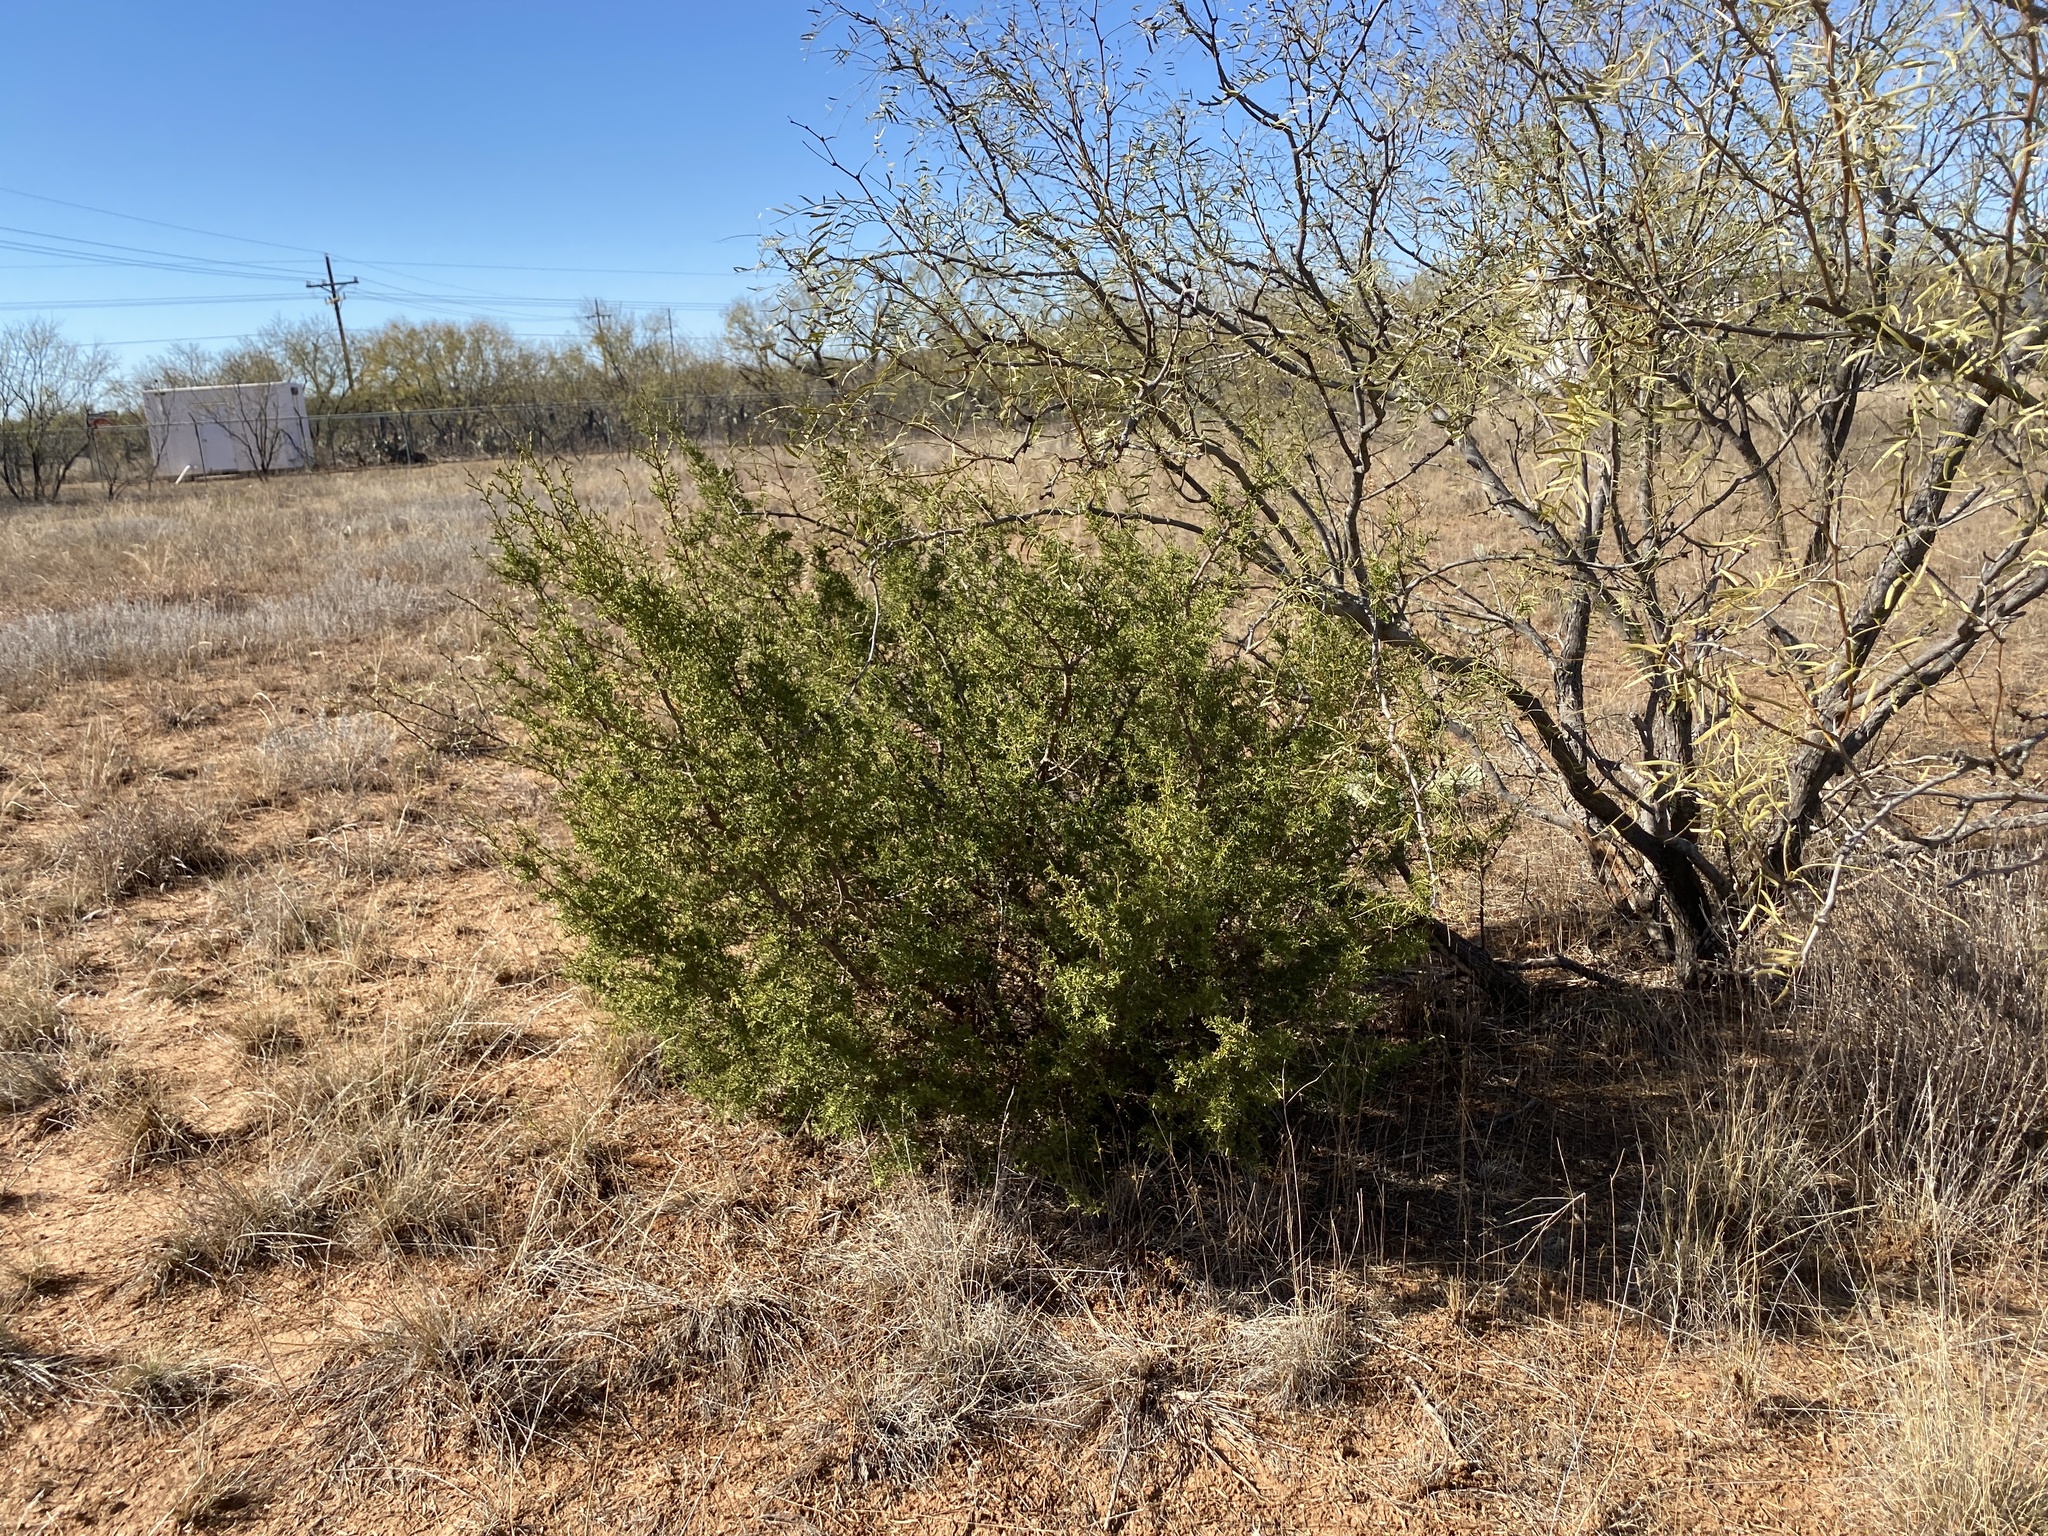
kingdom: Plantae
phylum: Tracheophyta
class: Pinopsida
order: Pinales
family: Cupressaceae
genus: Juniperus
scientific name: Juniperus pinchotii
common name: Pinchot juniper
